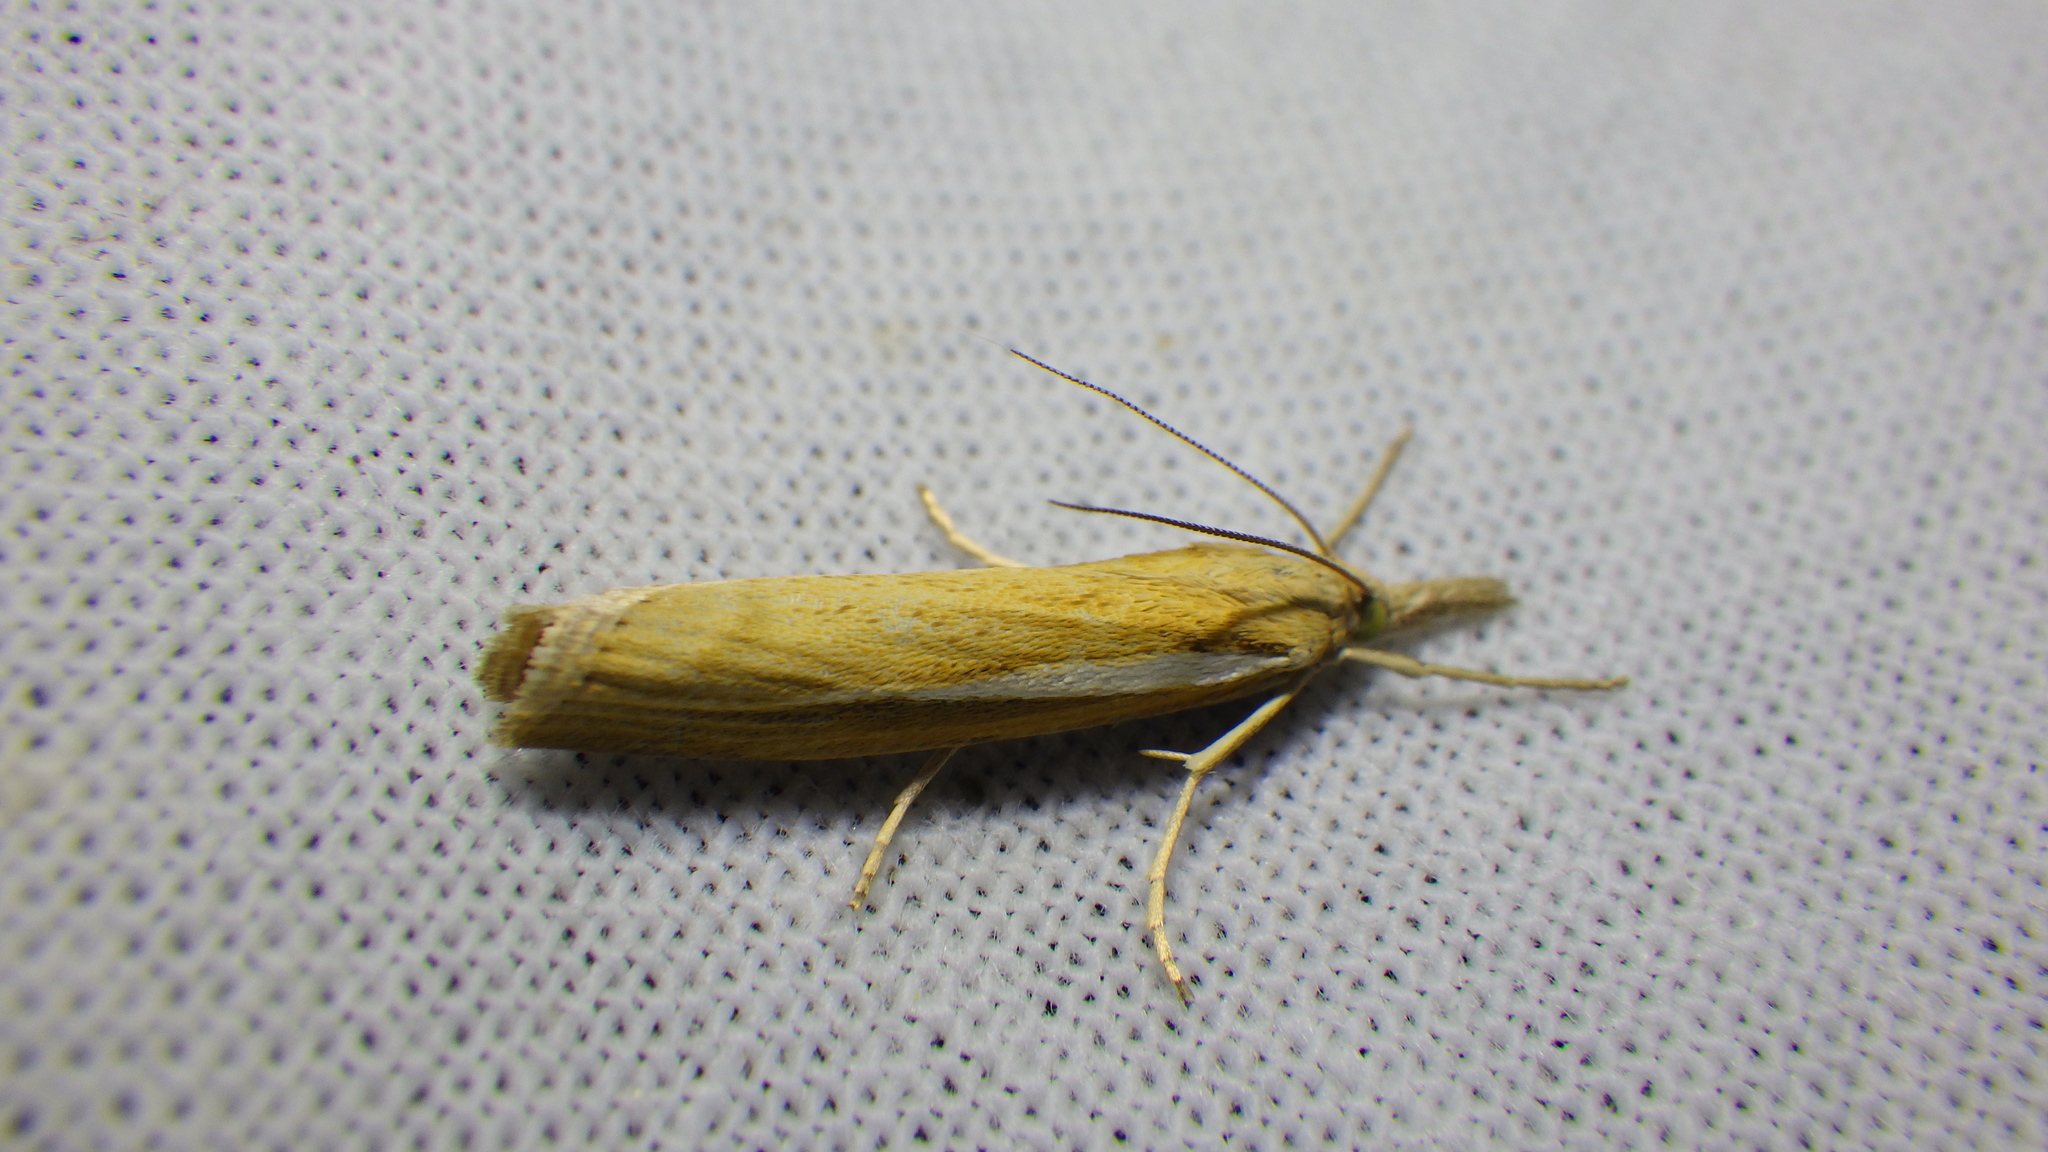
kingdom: Animalia
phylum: Arthropoda
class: Insecta
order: Lepidoptera
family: Crambidae
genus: Agriphila
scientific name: Agriphila tristellus
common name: Common grass-veneer
